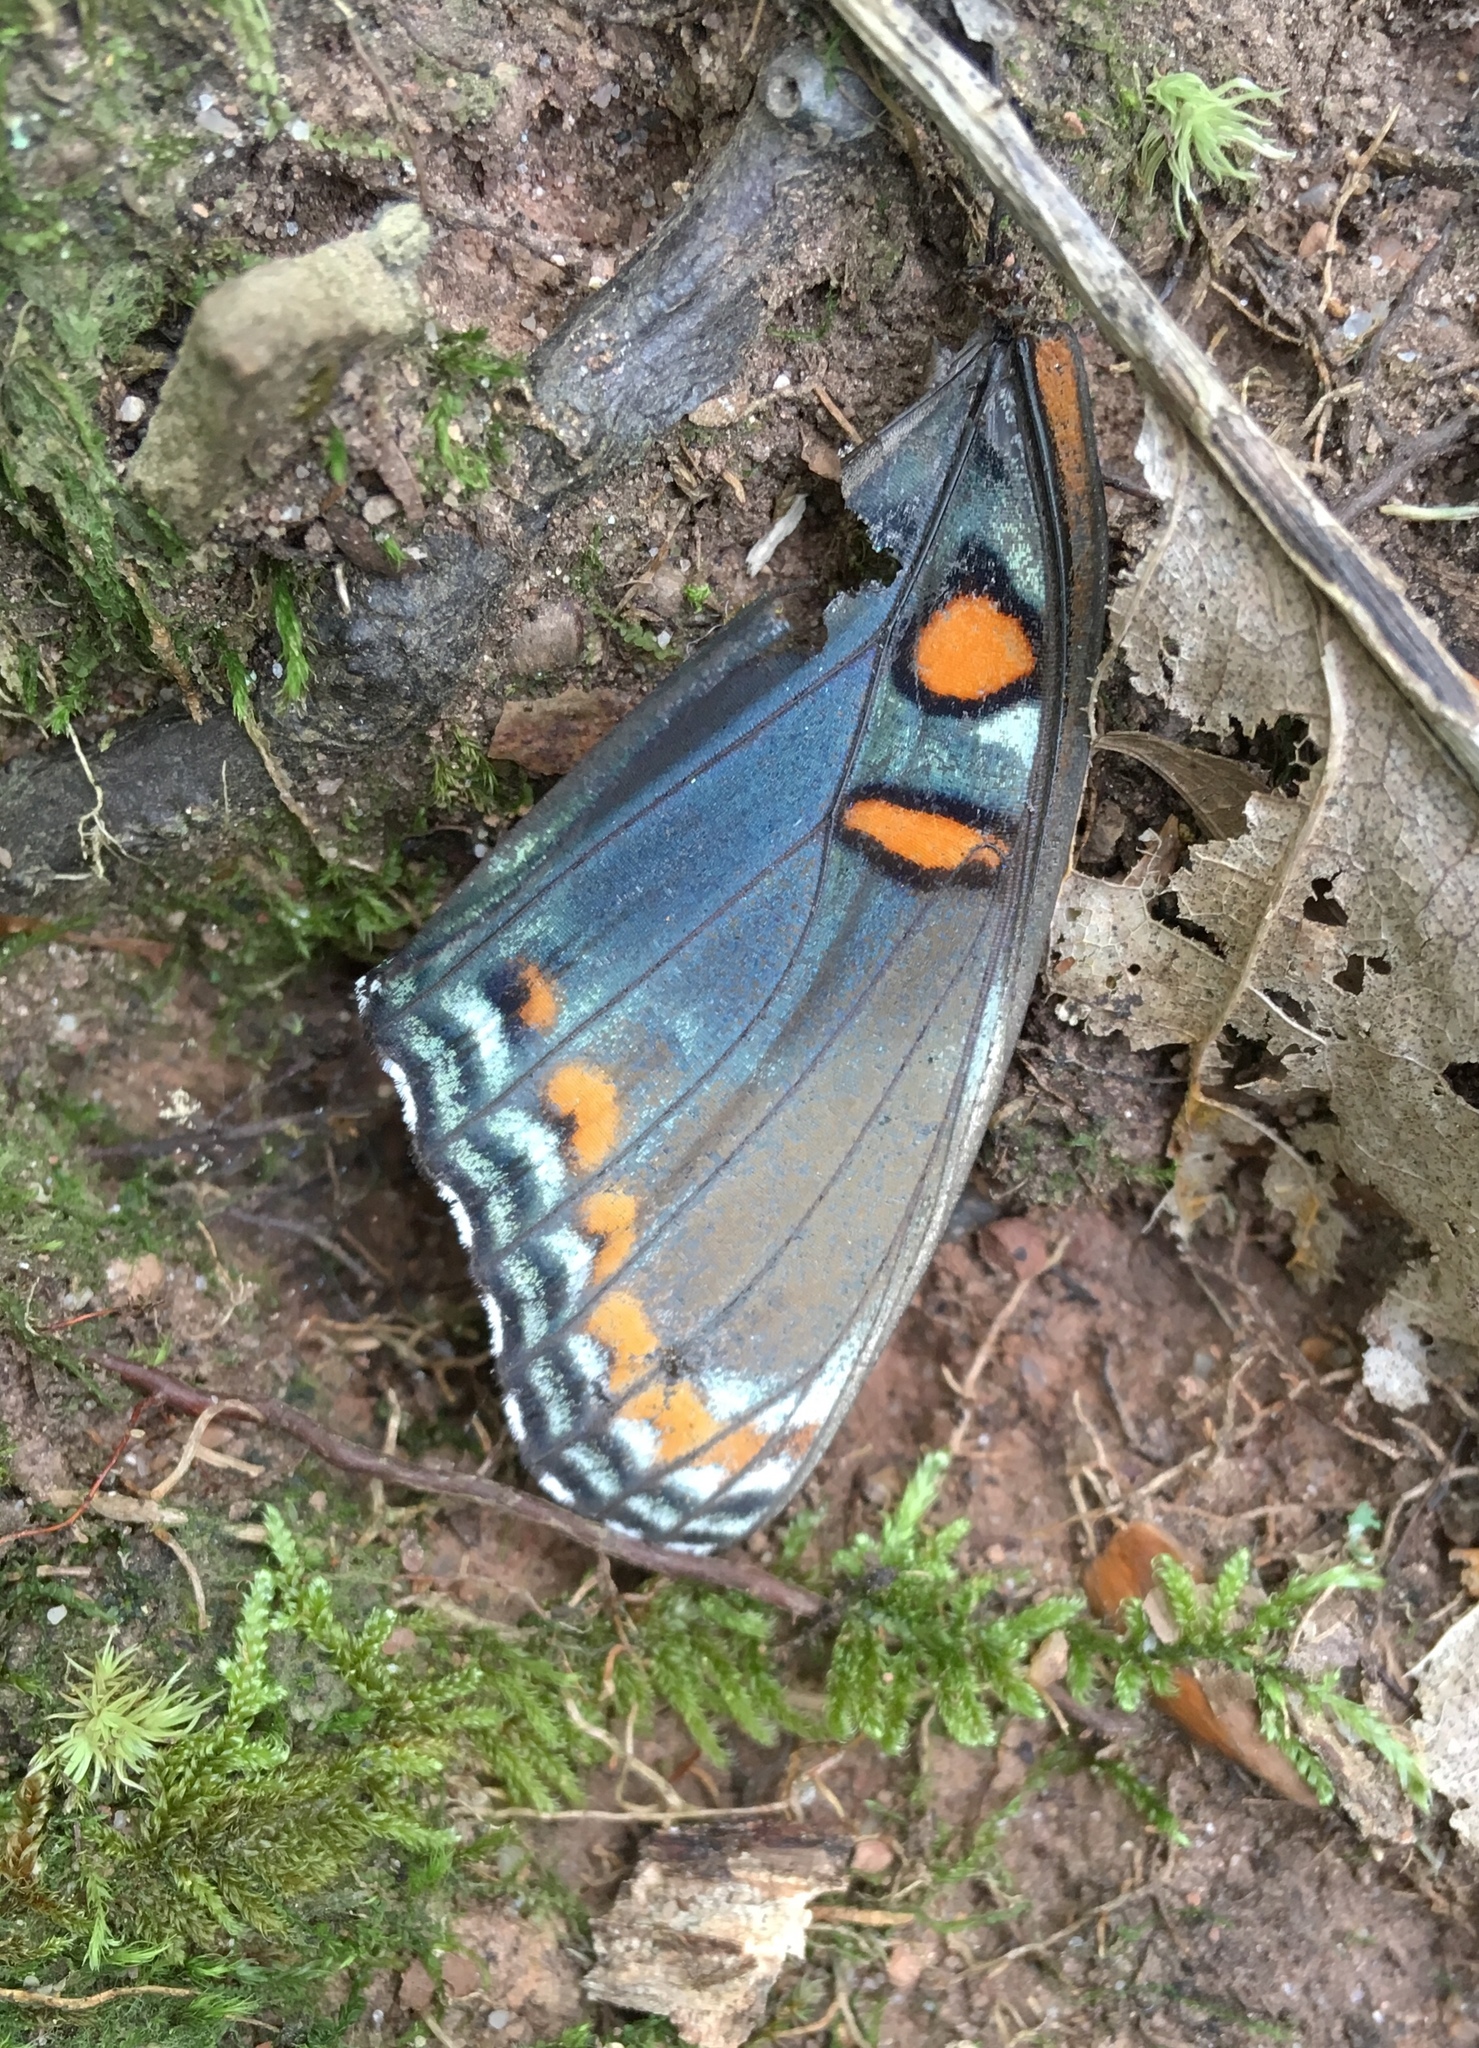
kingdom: Animalia
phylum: Arthropoda
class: Insecta
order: Lepidoptera
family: Nymphalidae
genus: Limenitis
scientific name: Limenitis astyanax
